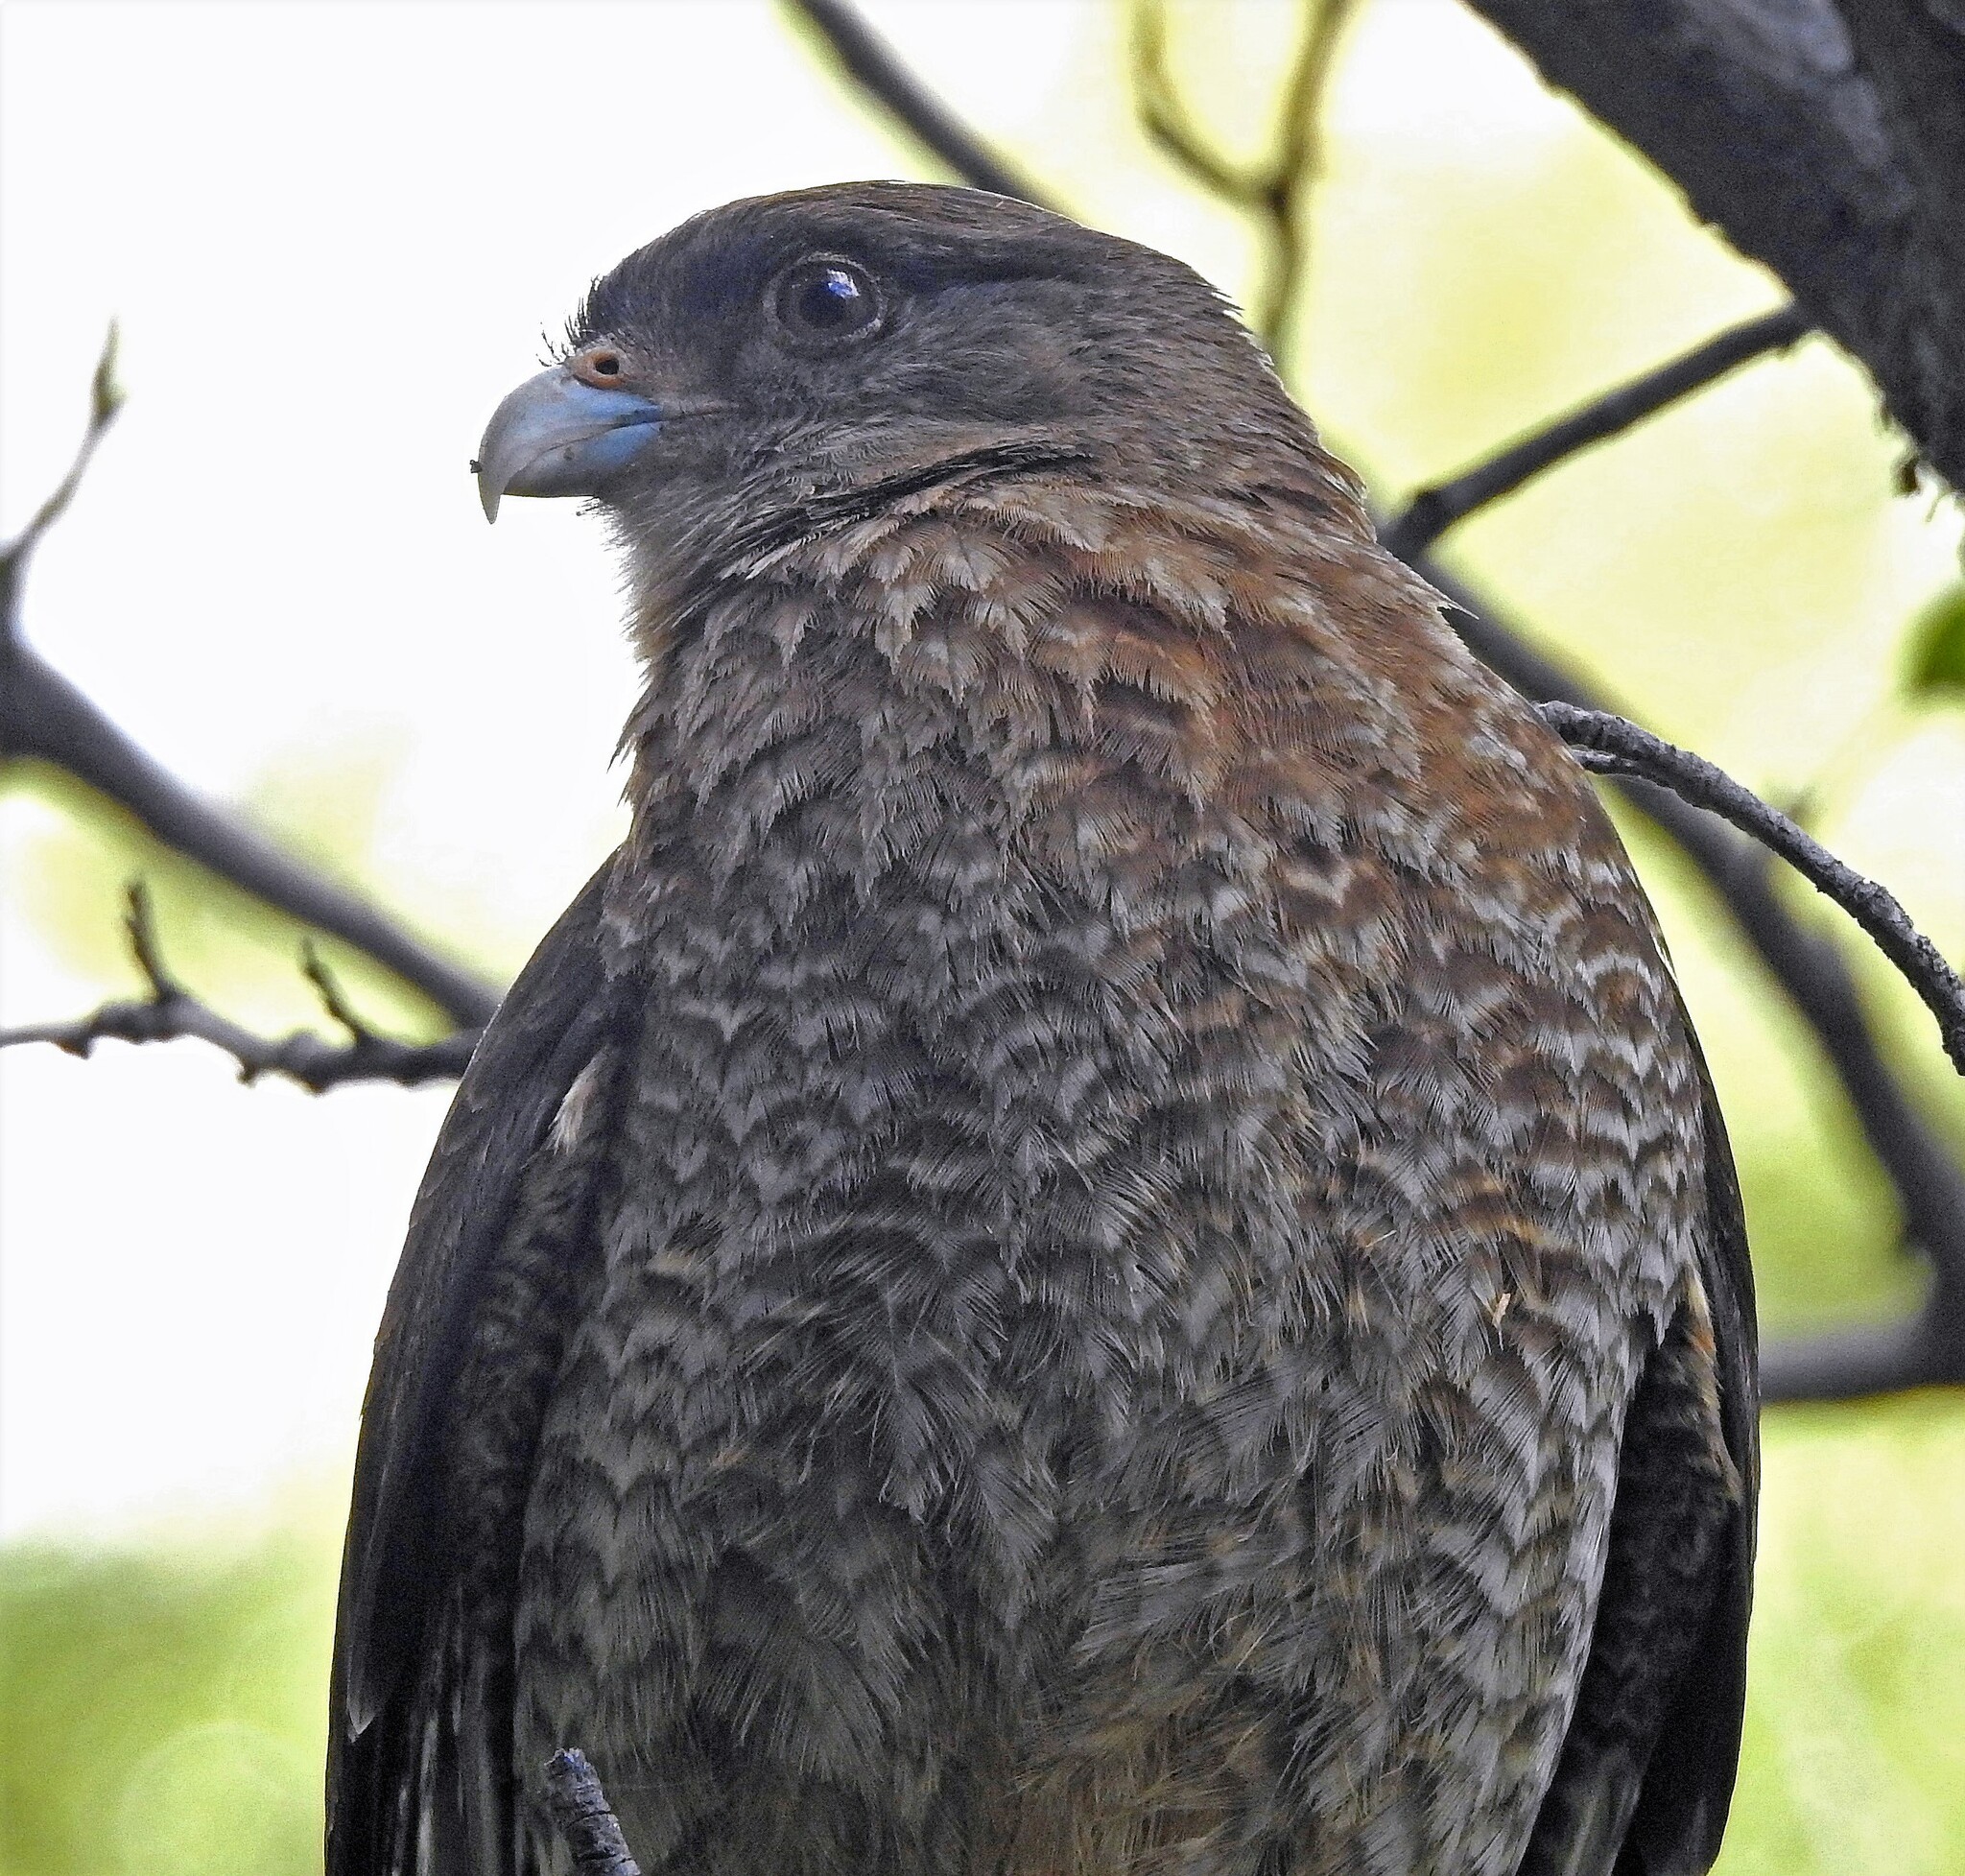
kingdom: Animalia
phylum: Chordata
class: Aves
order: Falconiformes
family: Falconidae
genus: Daptrius
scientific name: Daptrius
